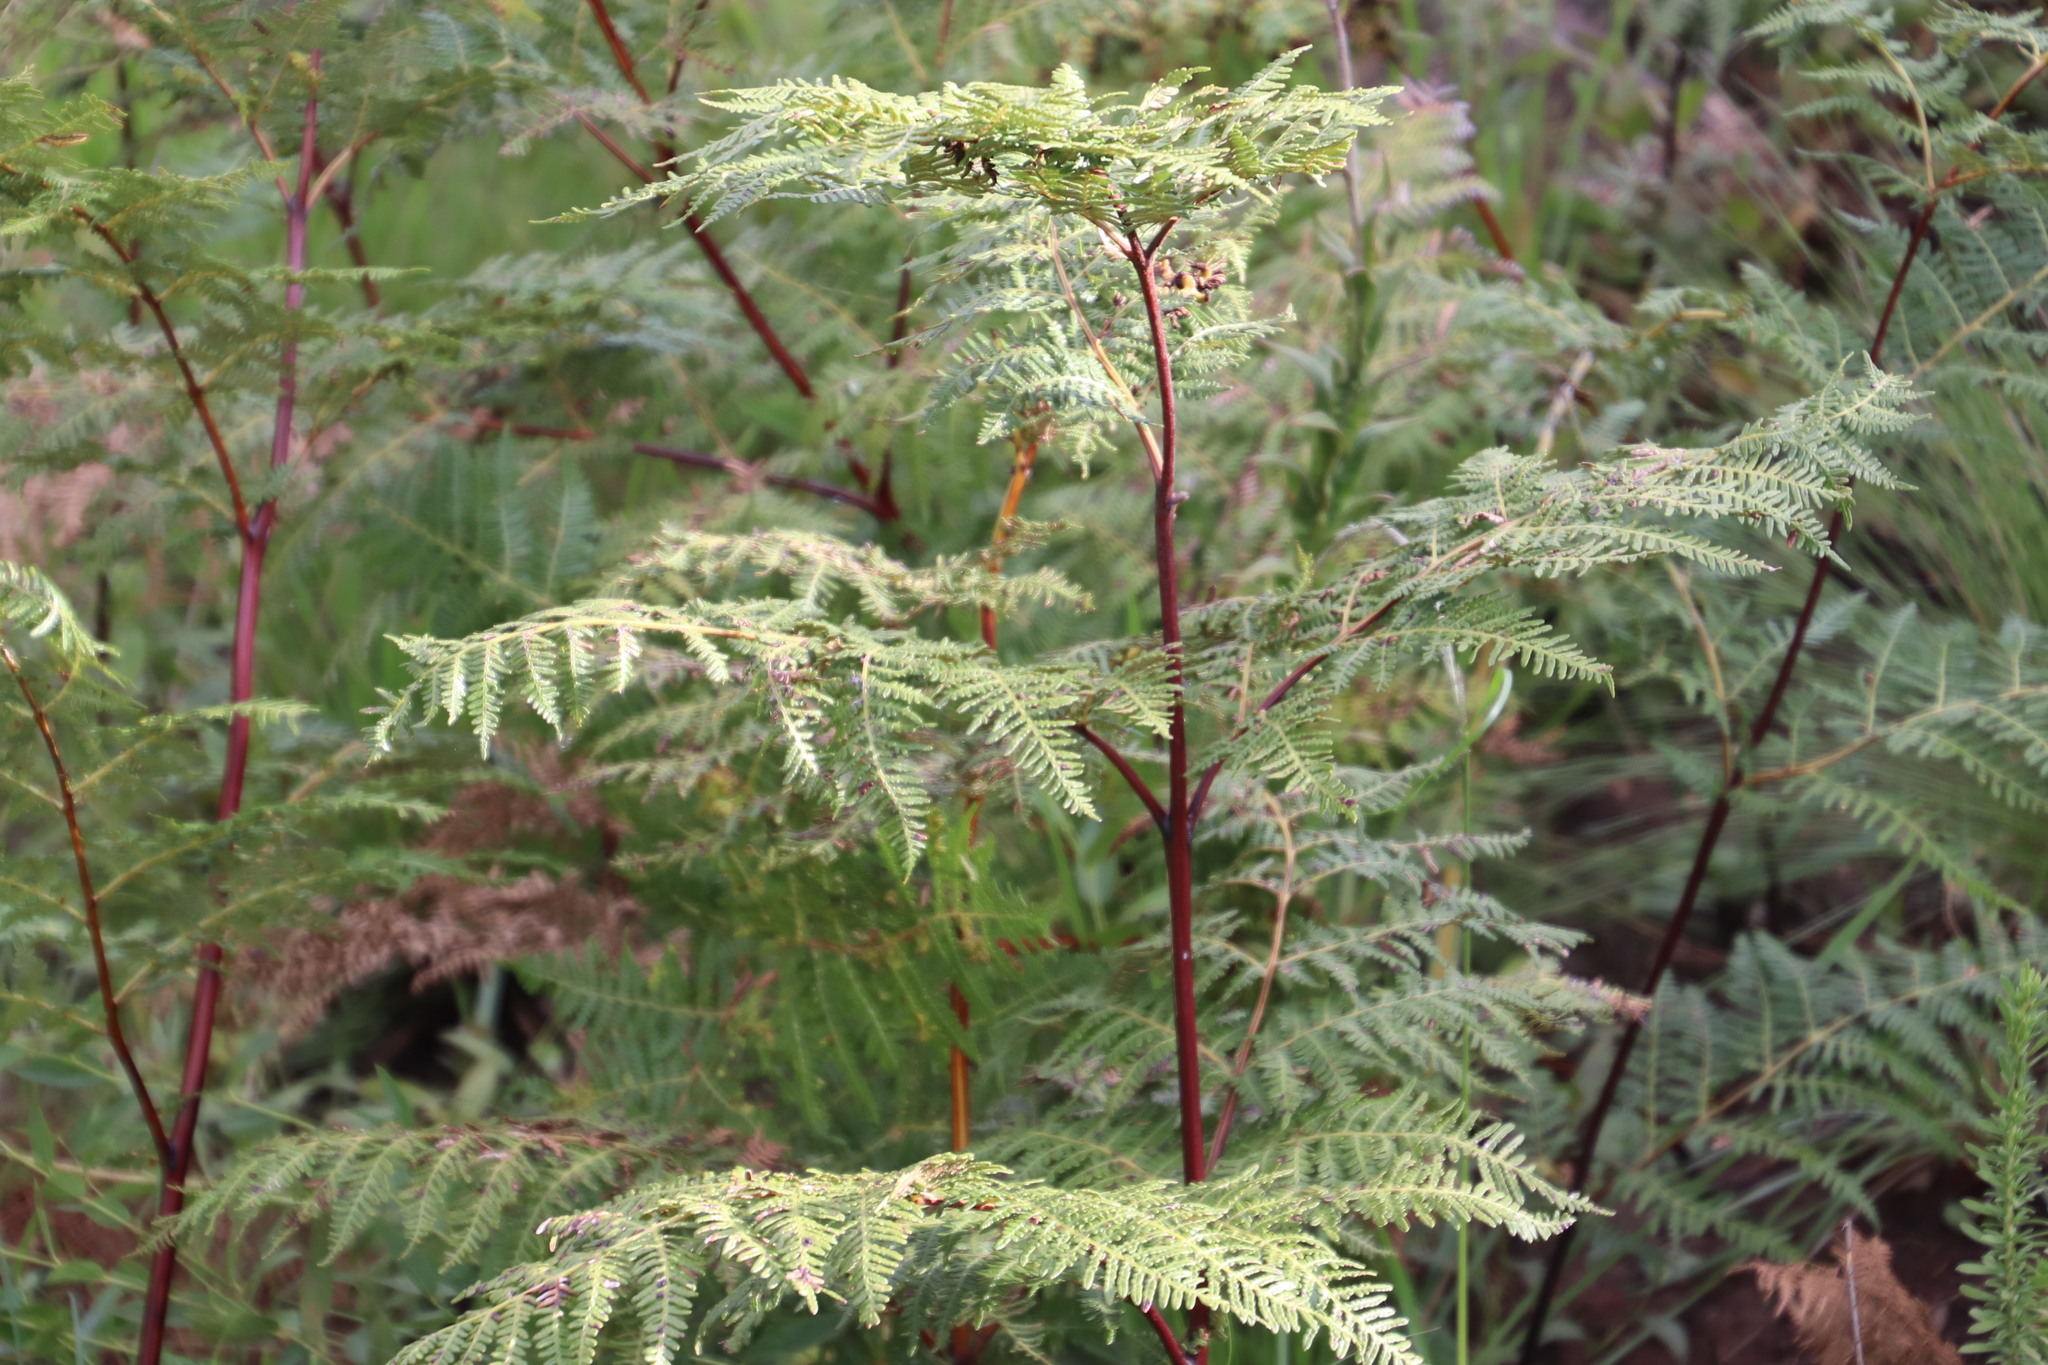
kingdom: Plantae
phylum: Tracheophyta
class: Polypodiopsida
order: Polypodiales
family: Dennstaedtiaceae
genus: Pteridium
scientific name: Pteridium aquilinum
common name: Bracken
